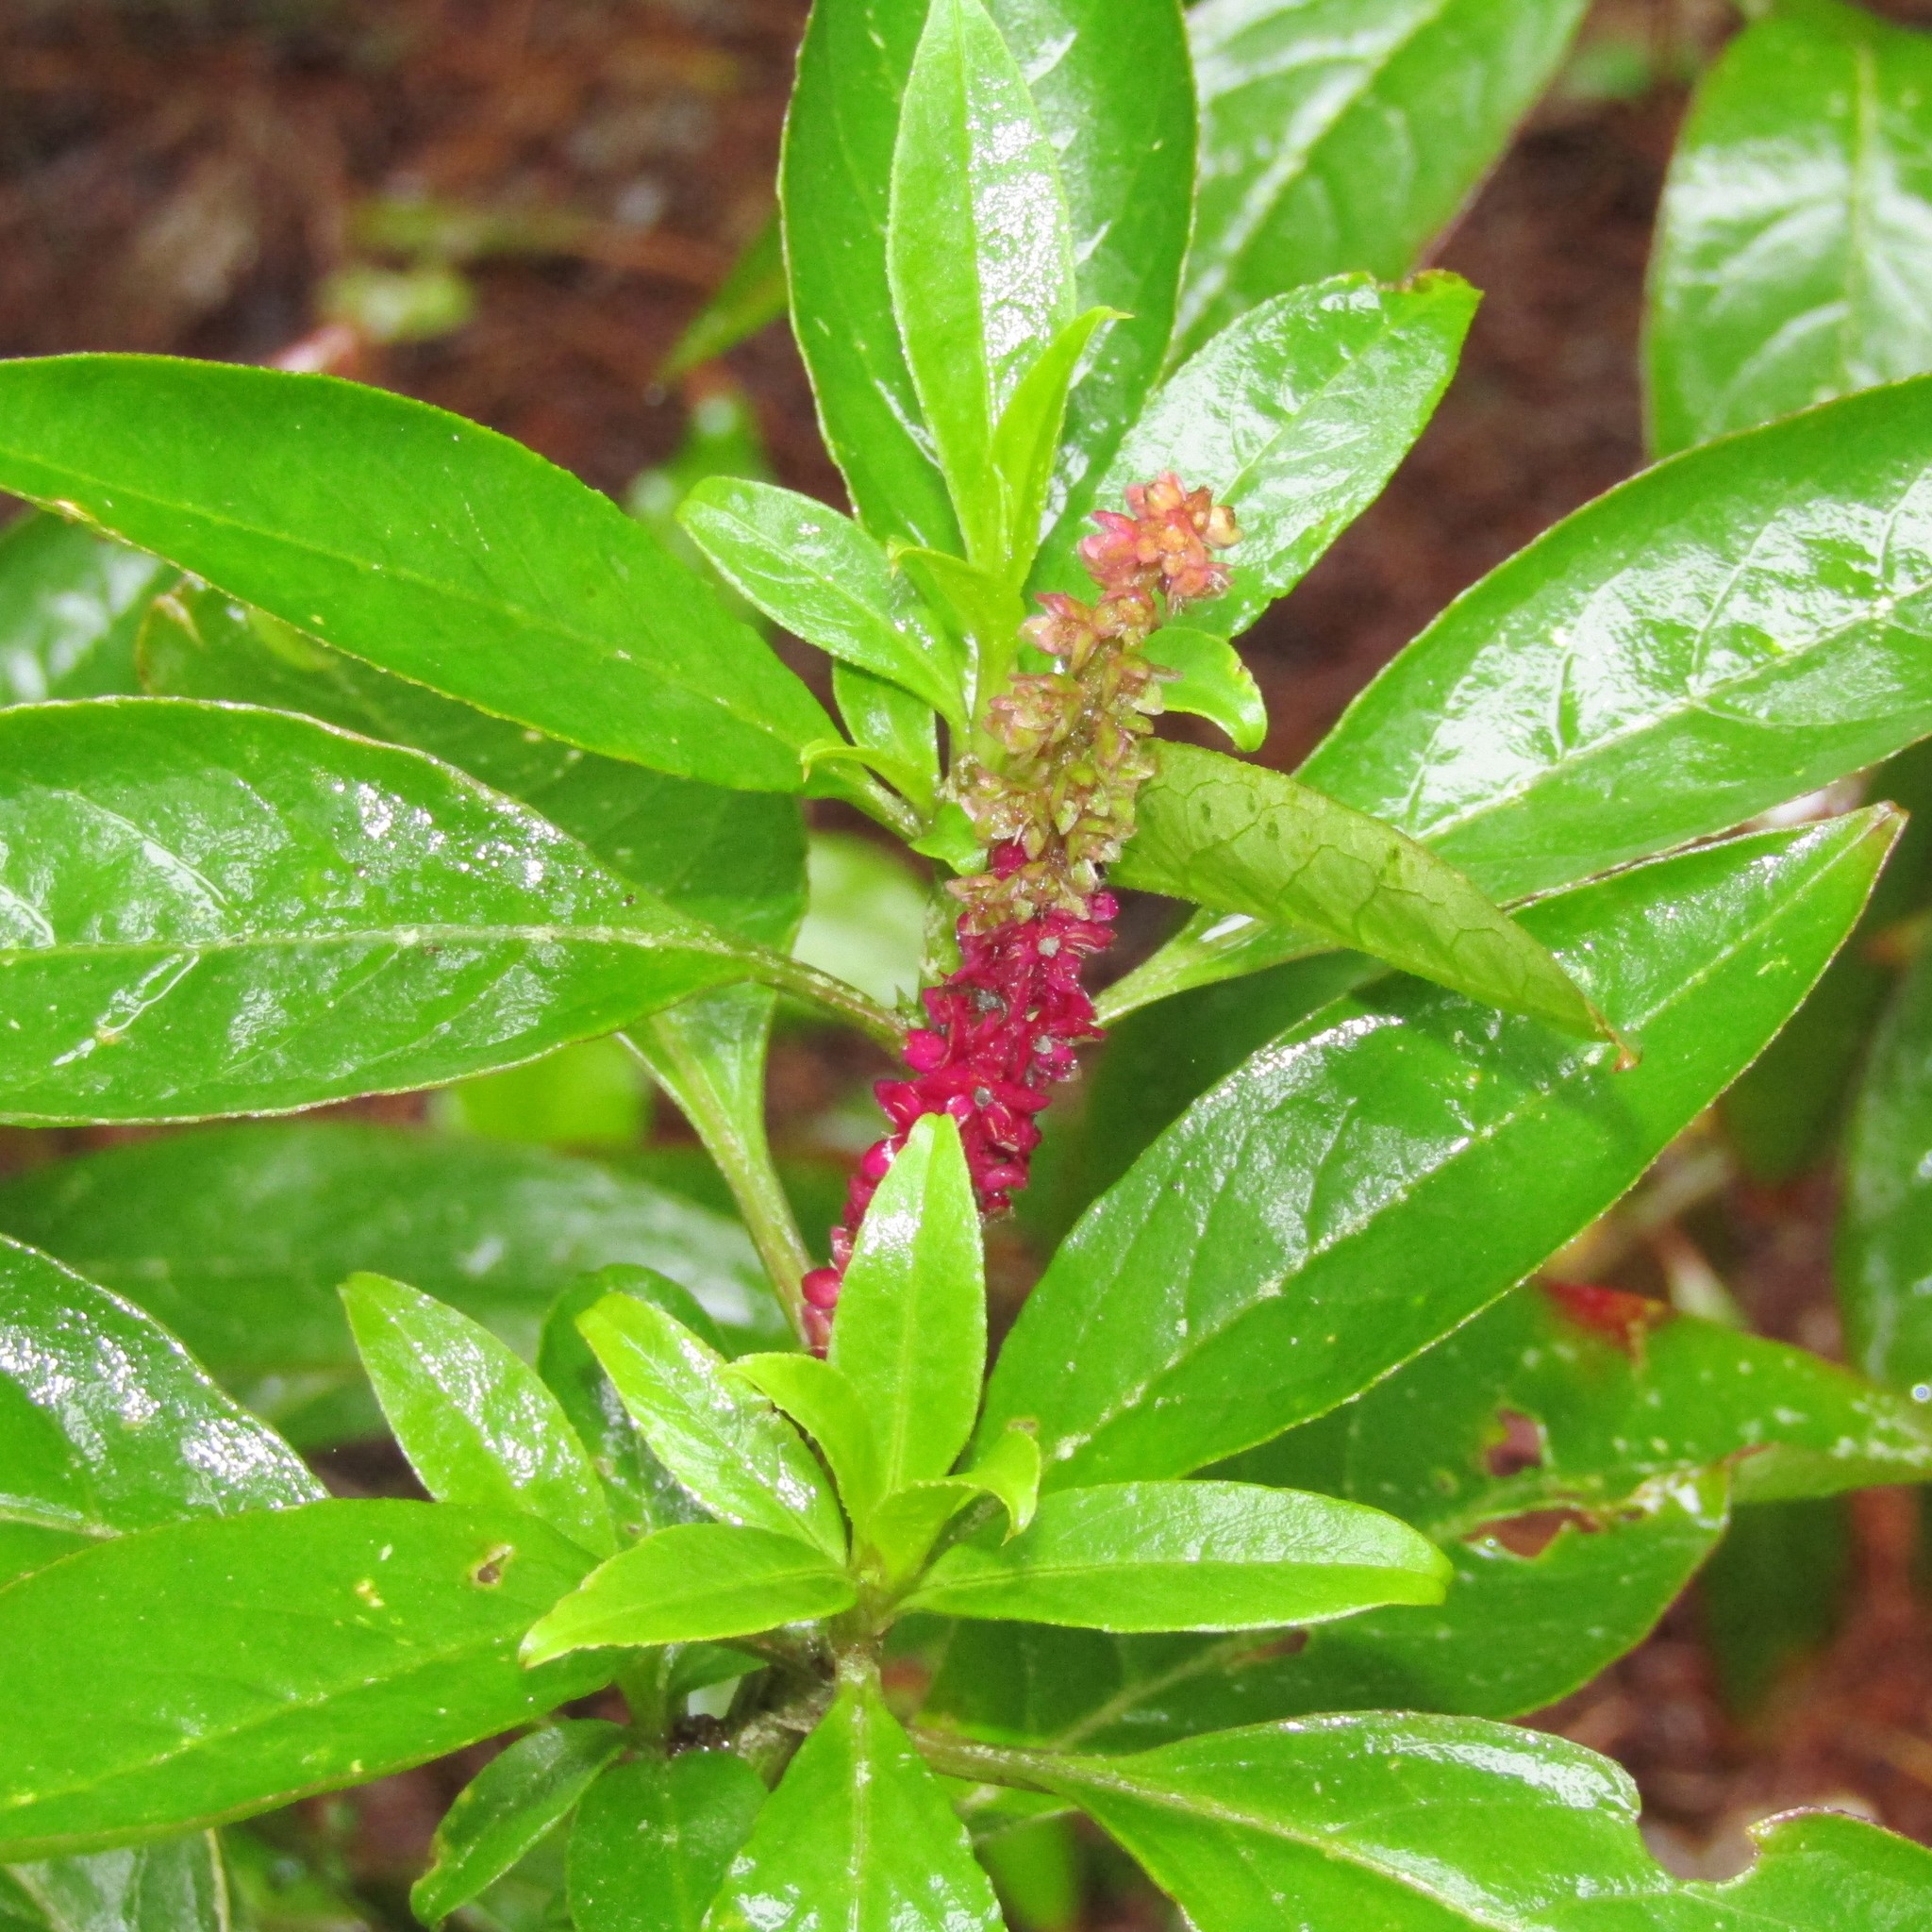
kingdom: Plantae
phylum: Tracheophyta
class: Magnoliopsida
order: Caryophyllales
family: Phytolaccaceae
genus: Phytolacca
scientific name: Phytolacca icosandra
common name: Button pokeweed
